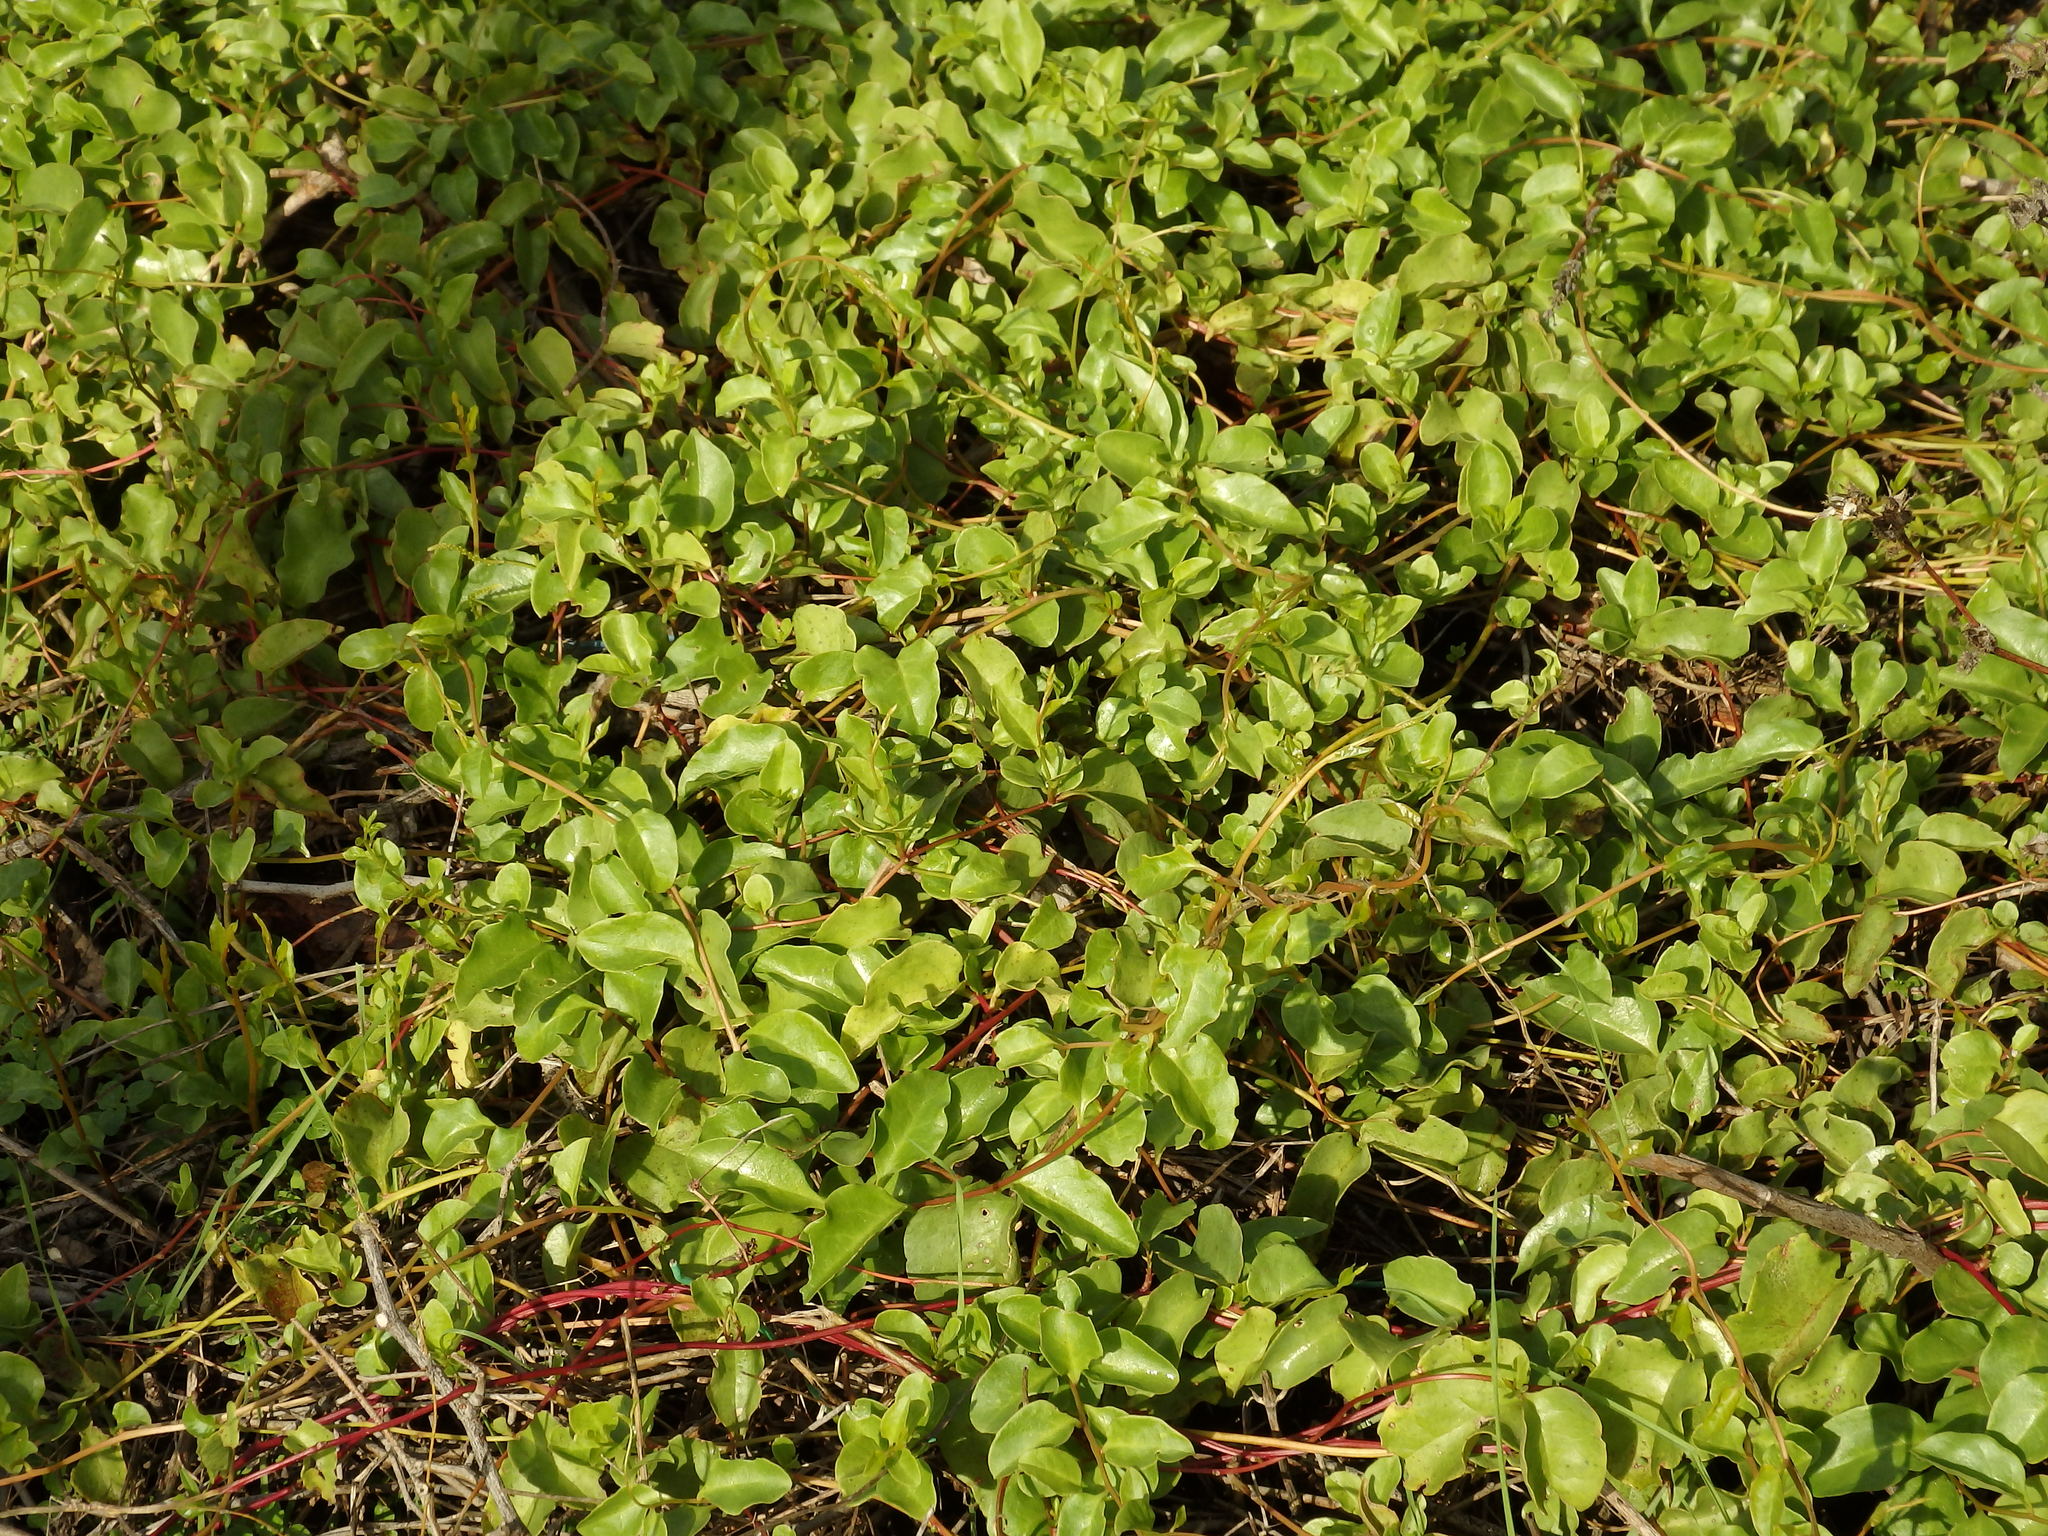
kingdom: Plantae
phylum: Tracheophyta
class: Magnoliopsida
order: Caryophyllales
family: Basellaceae
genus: Anredera
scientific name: Anredera cordifolia
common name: Heartleaf madeiravine
